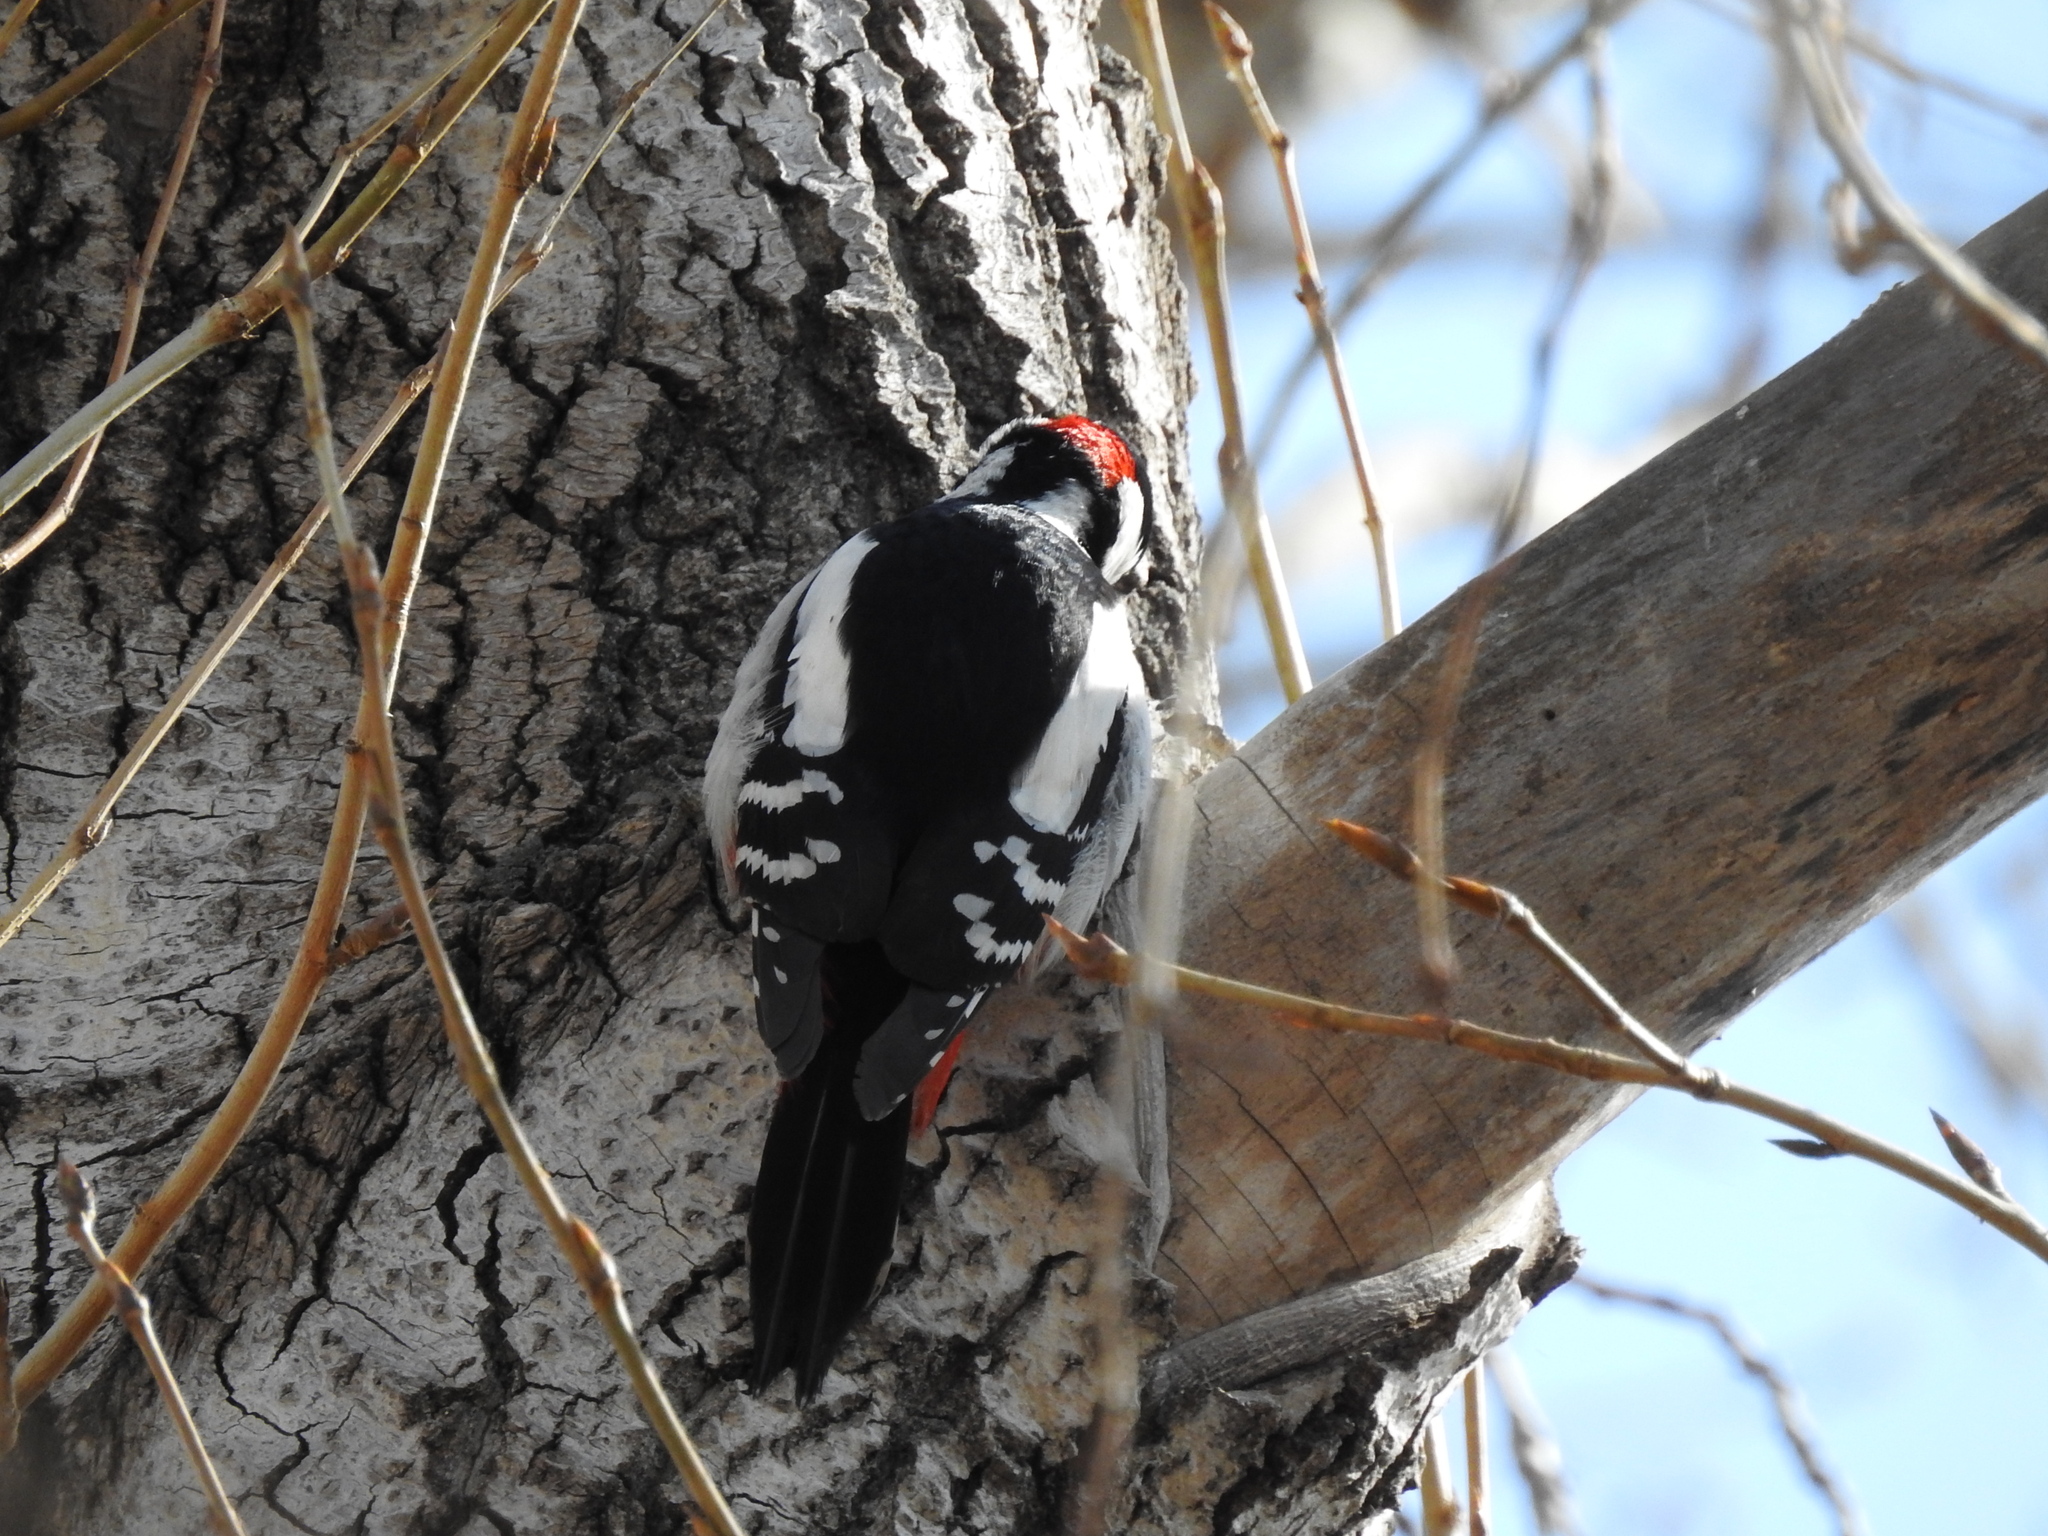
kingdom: Animalia
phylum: Chordata
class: Aves
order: Piciformes
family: Picidae
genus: Dendrocopos
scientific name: Dendrocopos major
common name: Great spotted woodpecker
